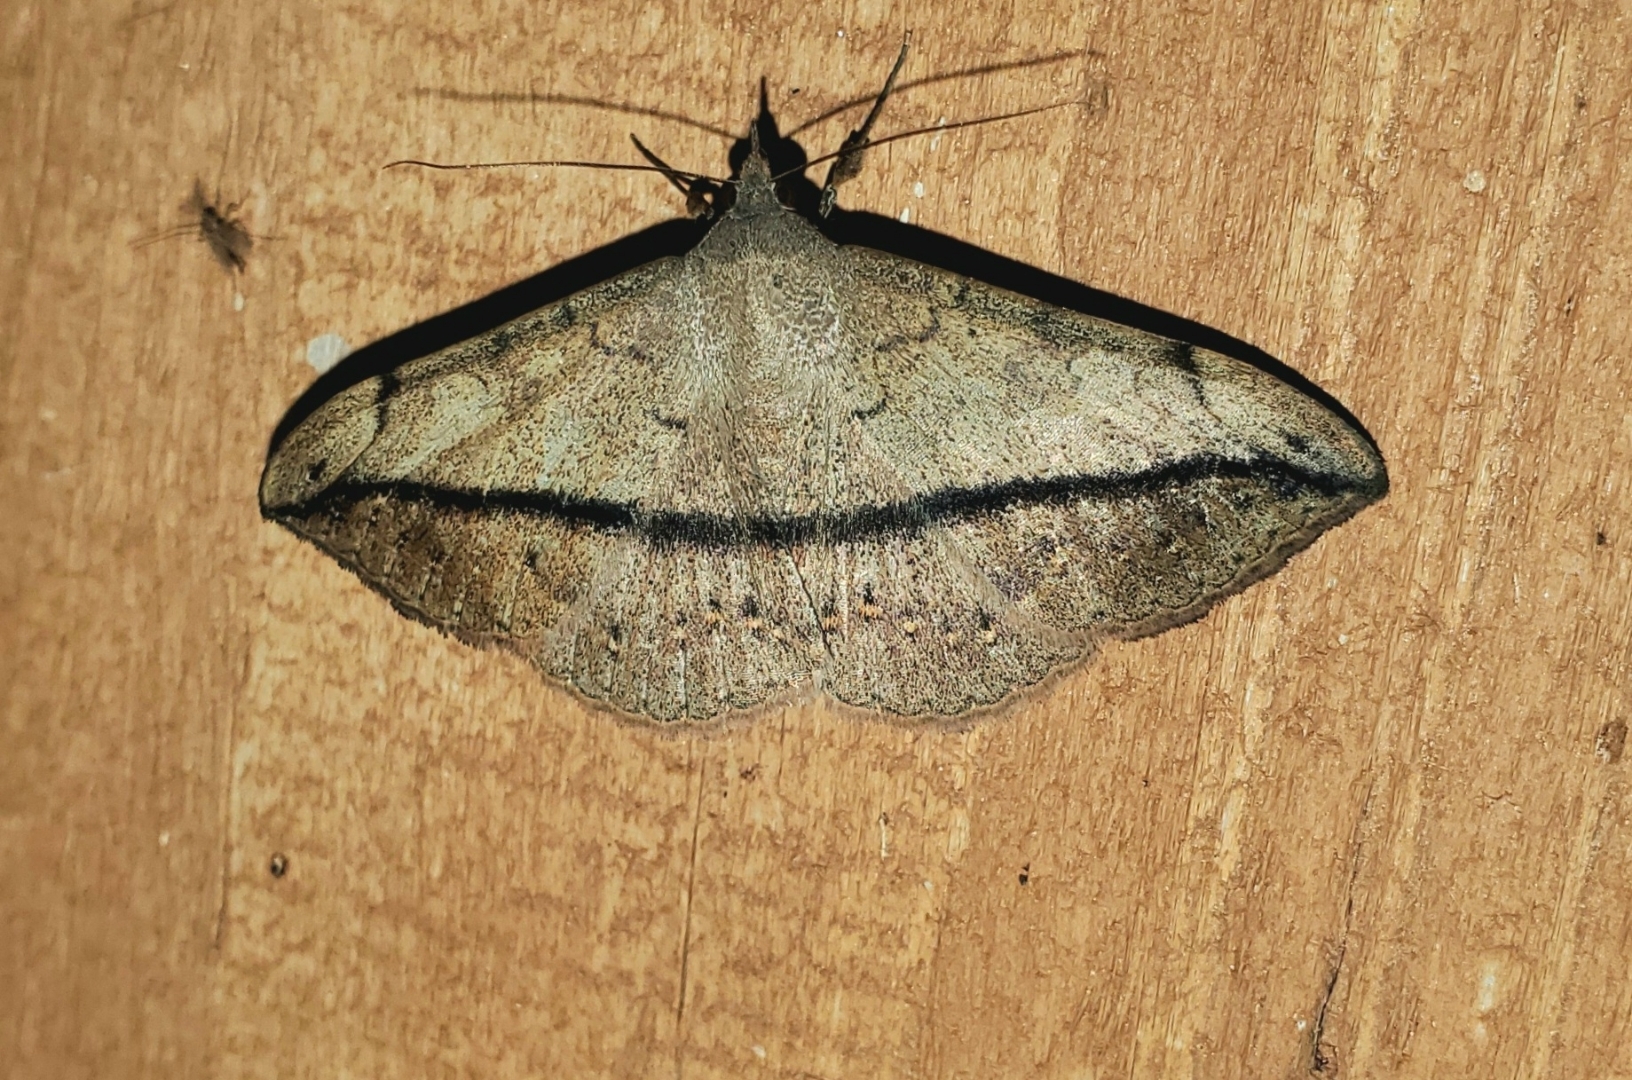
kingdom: Animalia
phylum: Arthropoda
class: Insecta
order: Lepidoptera
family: Erebidae
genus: Anticarsia
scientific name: Anticarsia gemmatalis
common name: Cutworm moth
